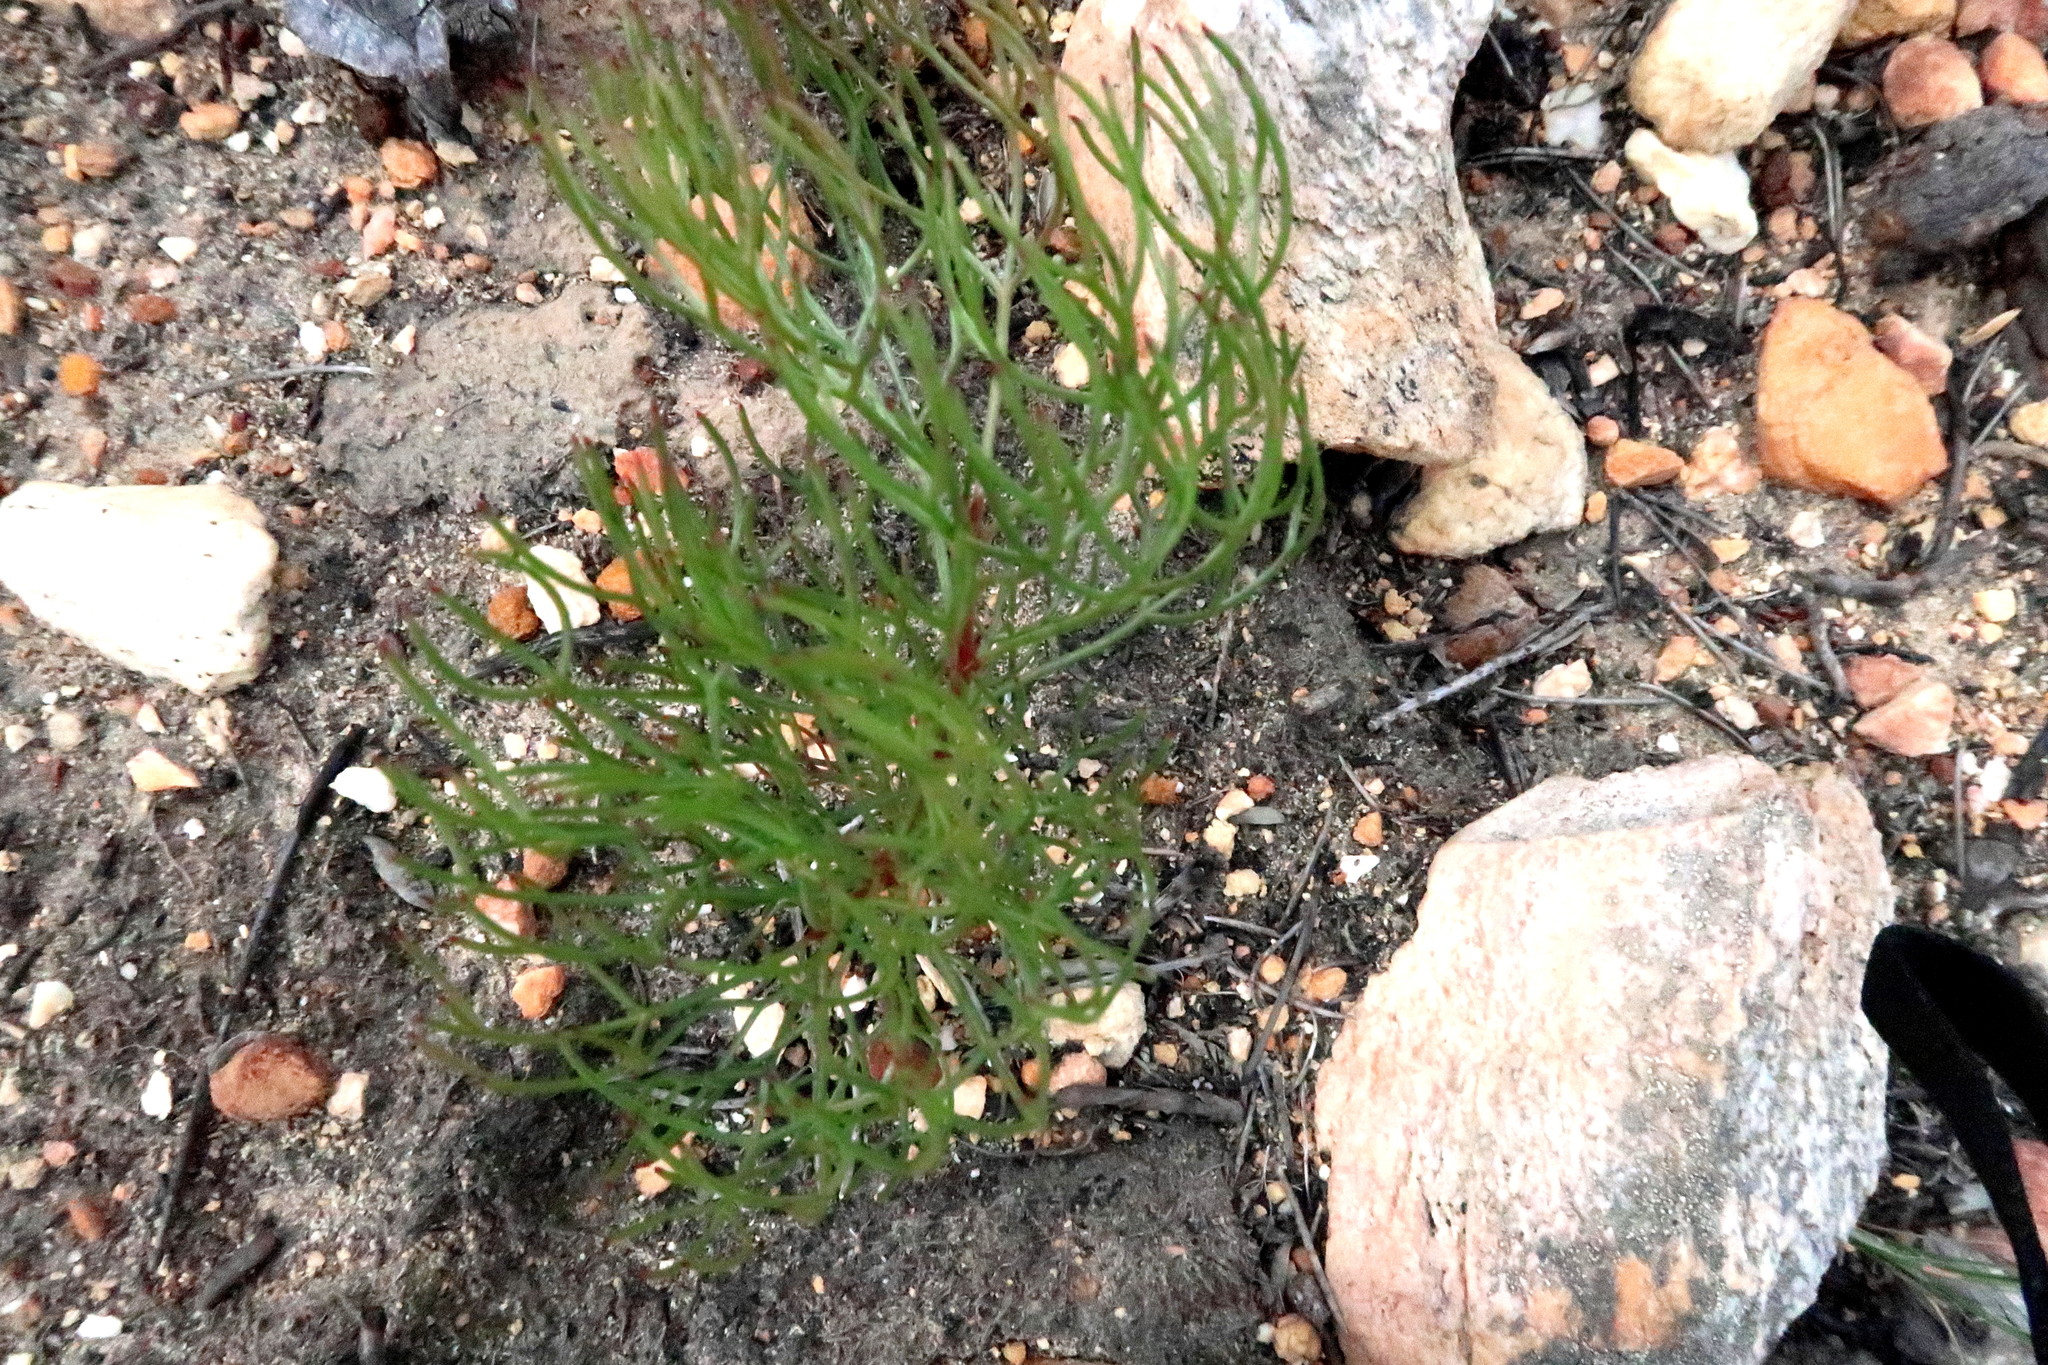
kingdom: Plantae
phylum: Tracheophyta
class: Magnoliopsida
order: Proteales
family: Proteaceae
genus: Serruria
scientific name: Serruria fasciflora
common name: Common pin spiderhead
